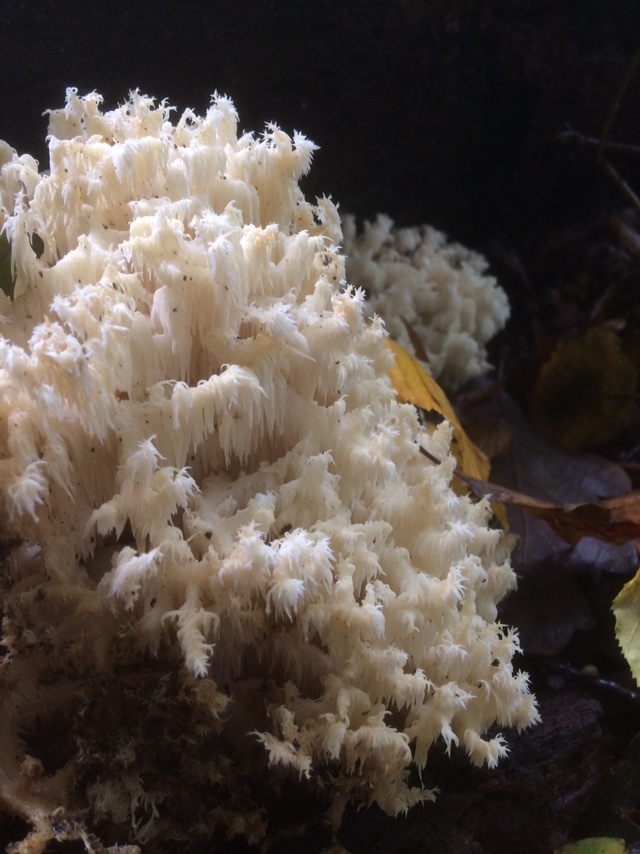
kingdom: Fungi
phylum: Basidiomycota
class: Agaricomycetes
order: Russulales
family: Hericiaceae
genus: Hericium
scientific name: Hericium coralloides
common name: Coral tooth
